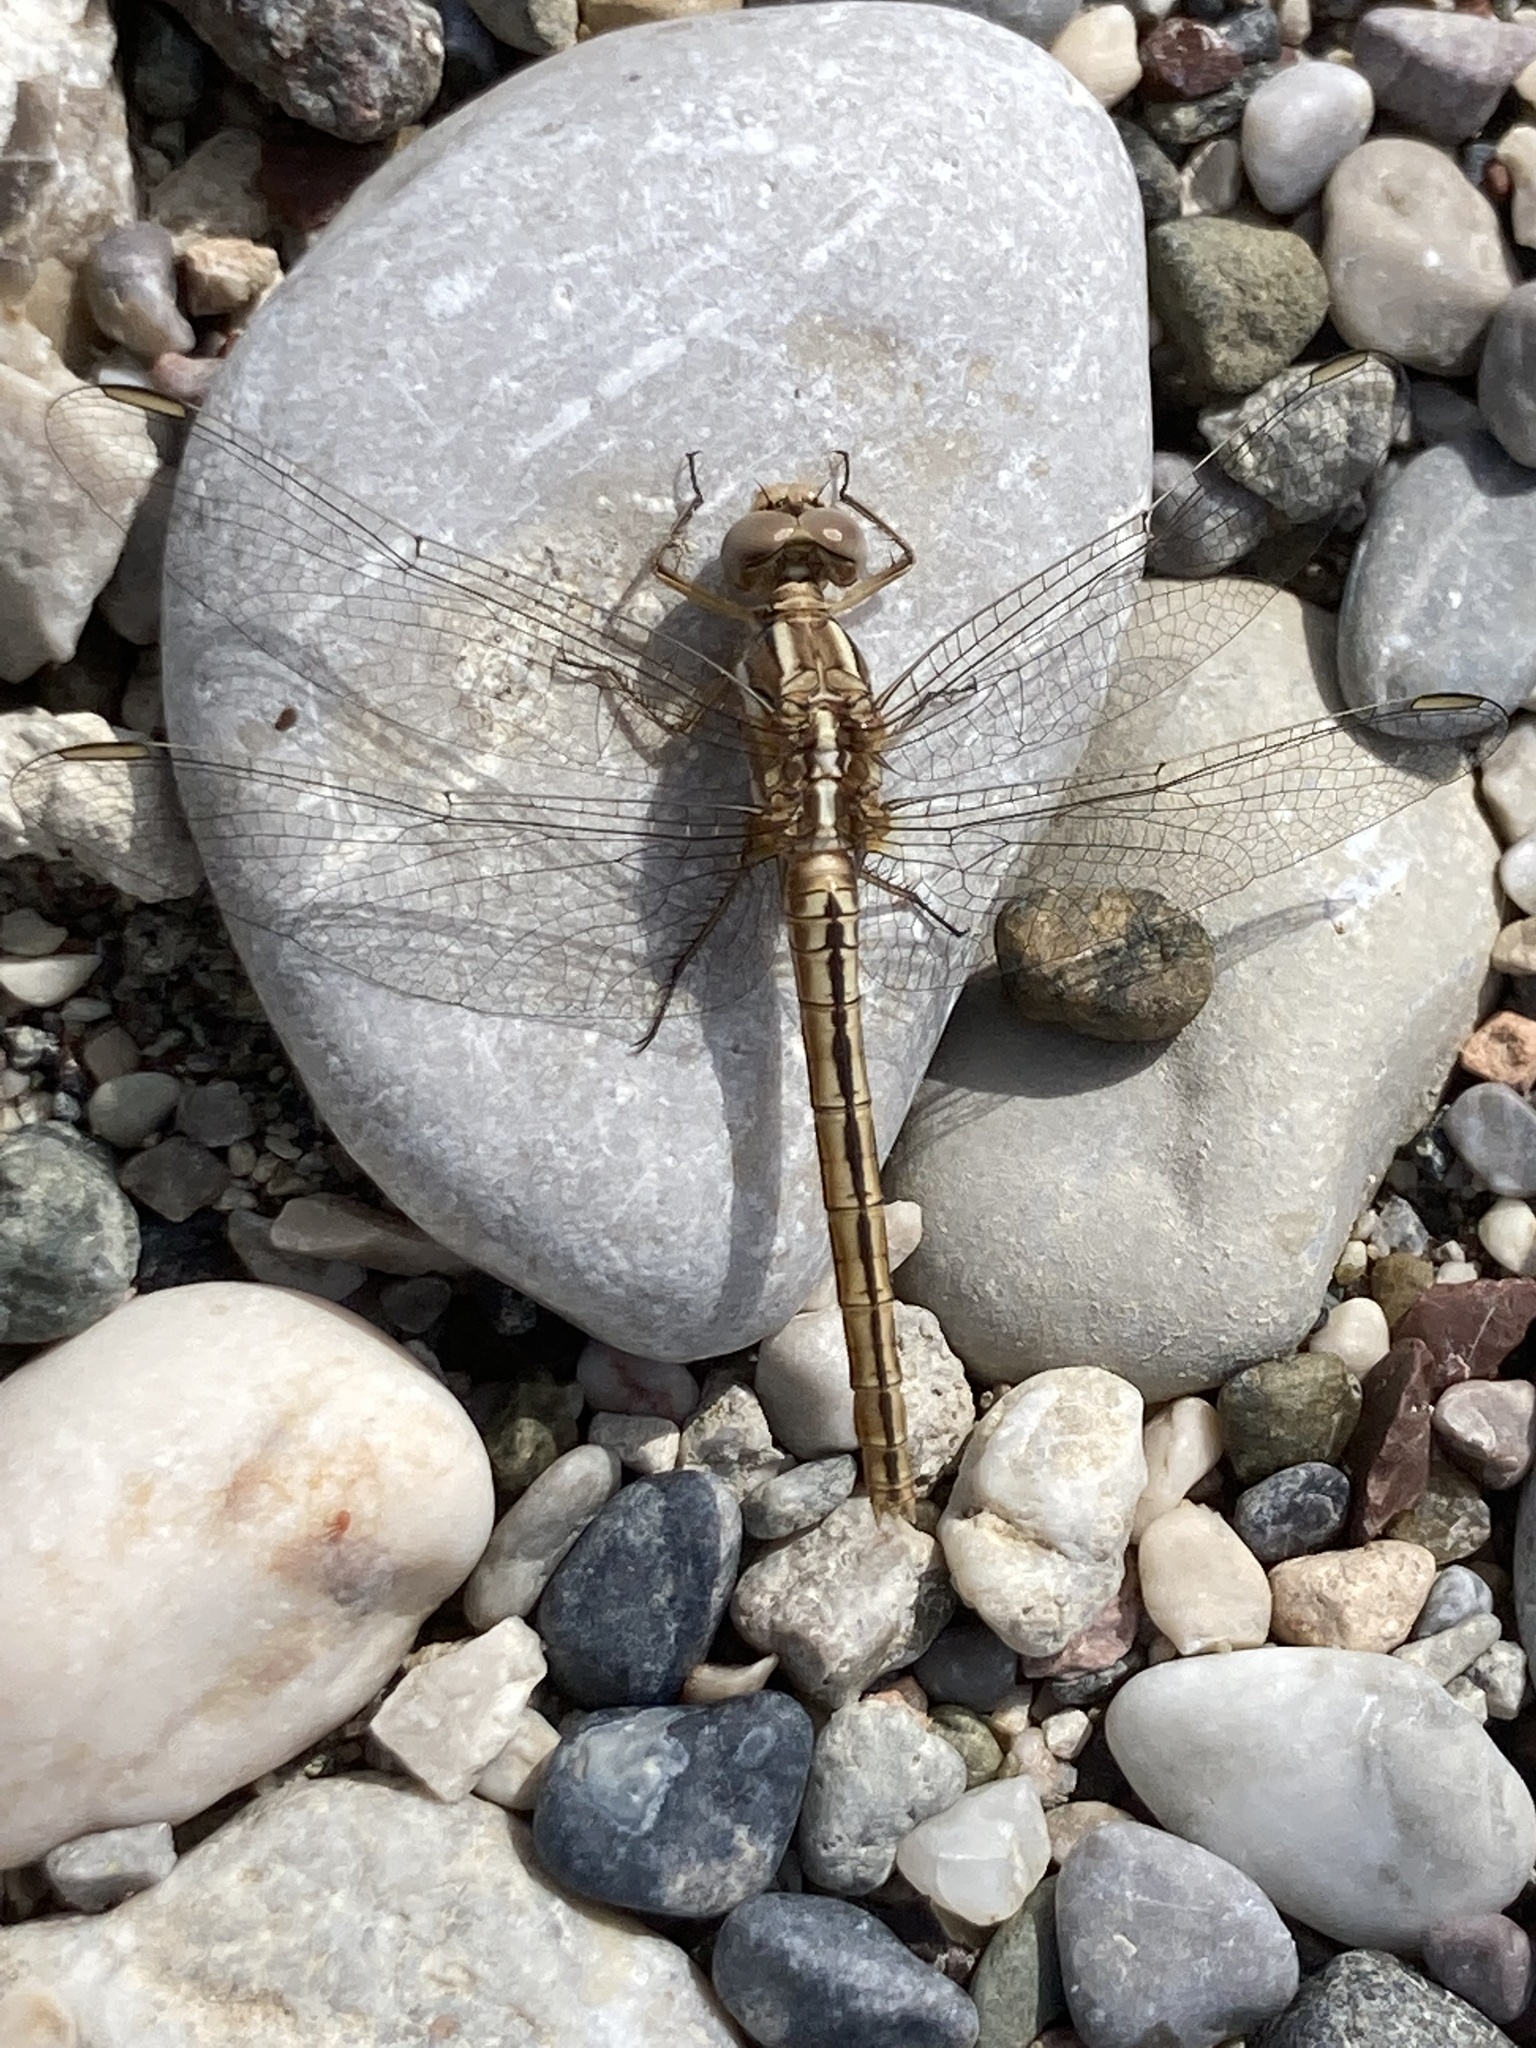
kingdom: Animalia
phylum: Arthropoda
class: Insecta
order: Odonata
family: Libellulidae
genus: Orthetrum
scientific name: Orthetrum taeniolatum
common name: Small skimmer
